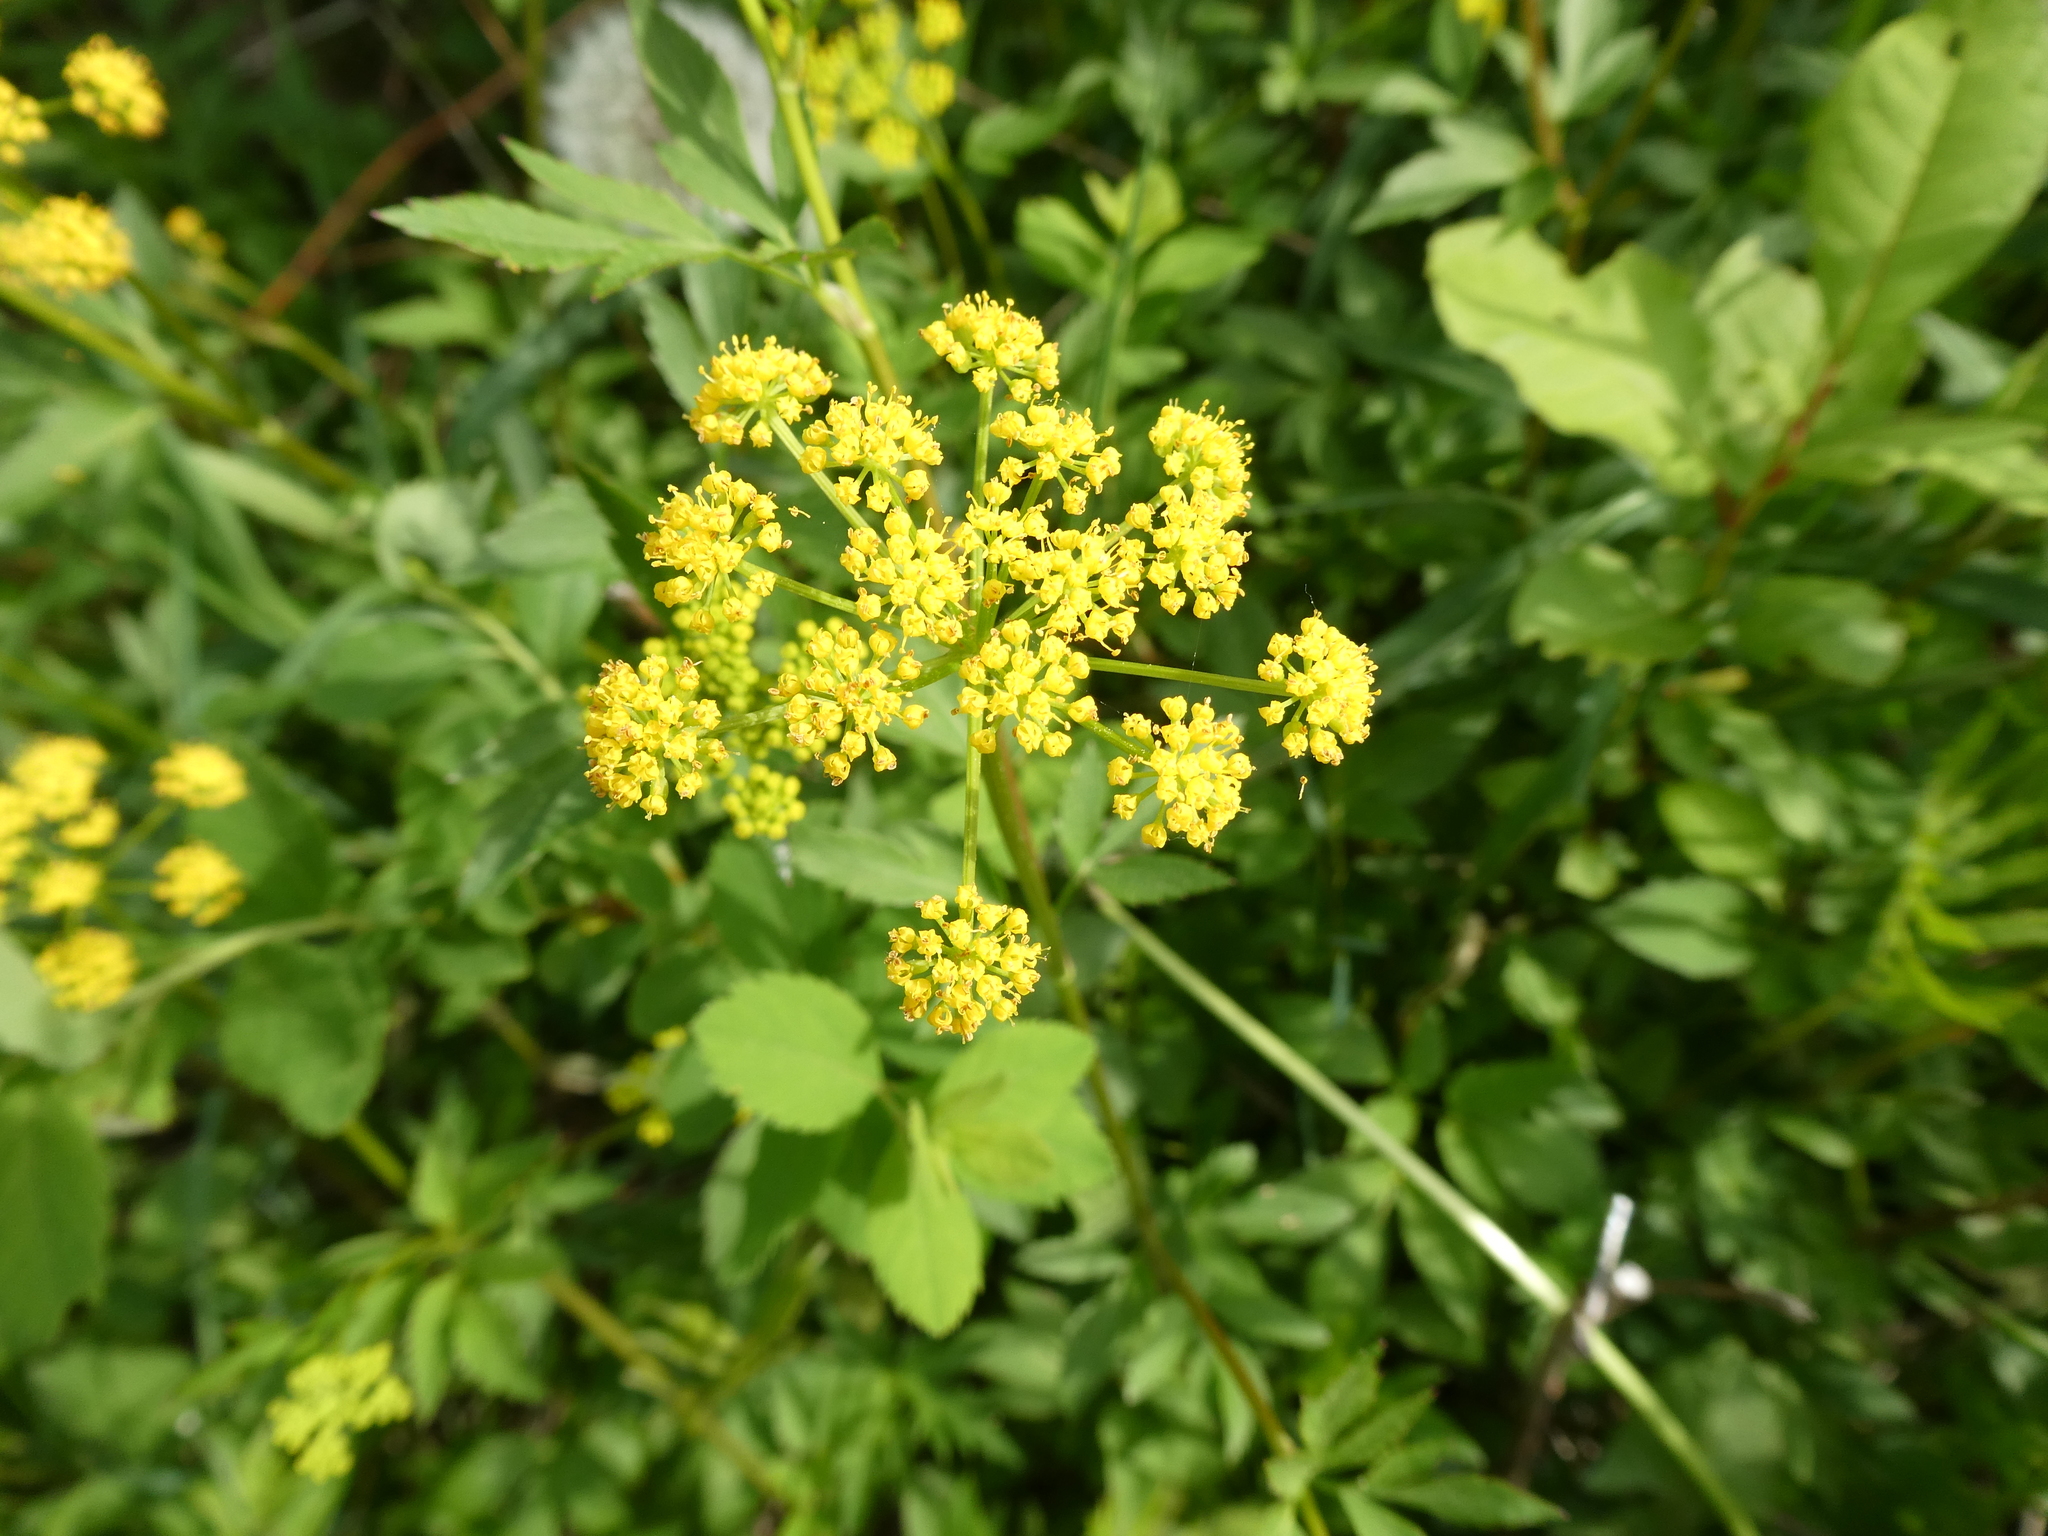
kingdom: Plantae
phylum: Tracheophyta
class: Magnoliopsida
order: Apiales
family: Apiaceae
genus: Zizia
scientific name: Zizia aurea
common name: Golden alexanders
